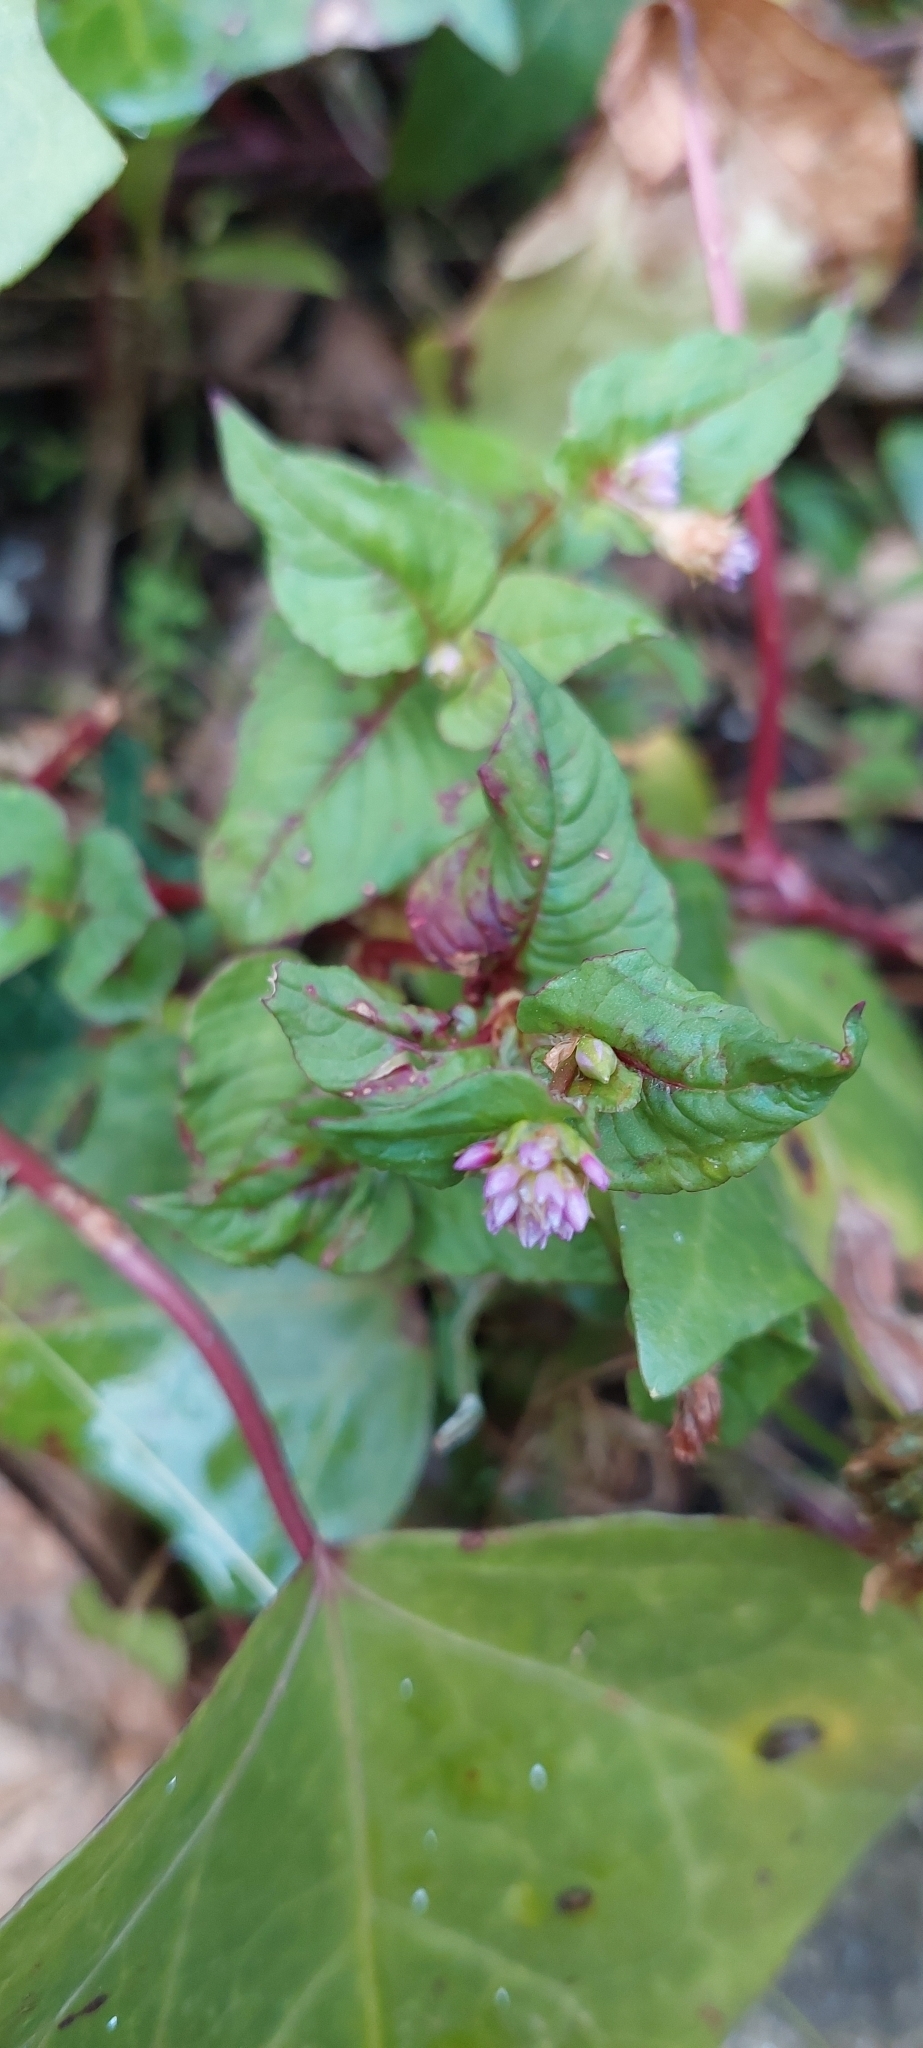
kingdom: Plantae
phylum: Tracheophyta
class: Magnoliopsida
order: Caryophyllales
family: Polygonaceae
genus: Persicaria
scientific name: Persicaria nepalensis
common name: Nepal persicaria
